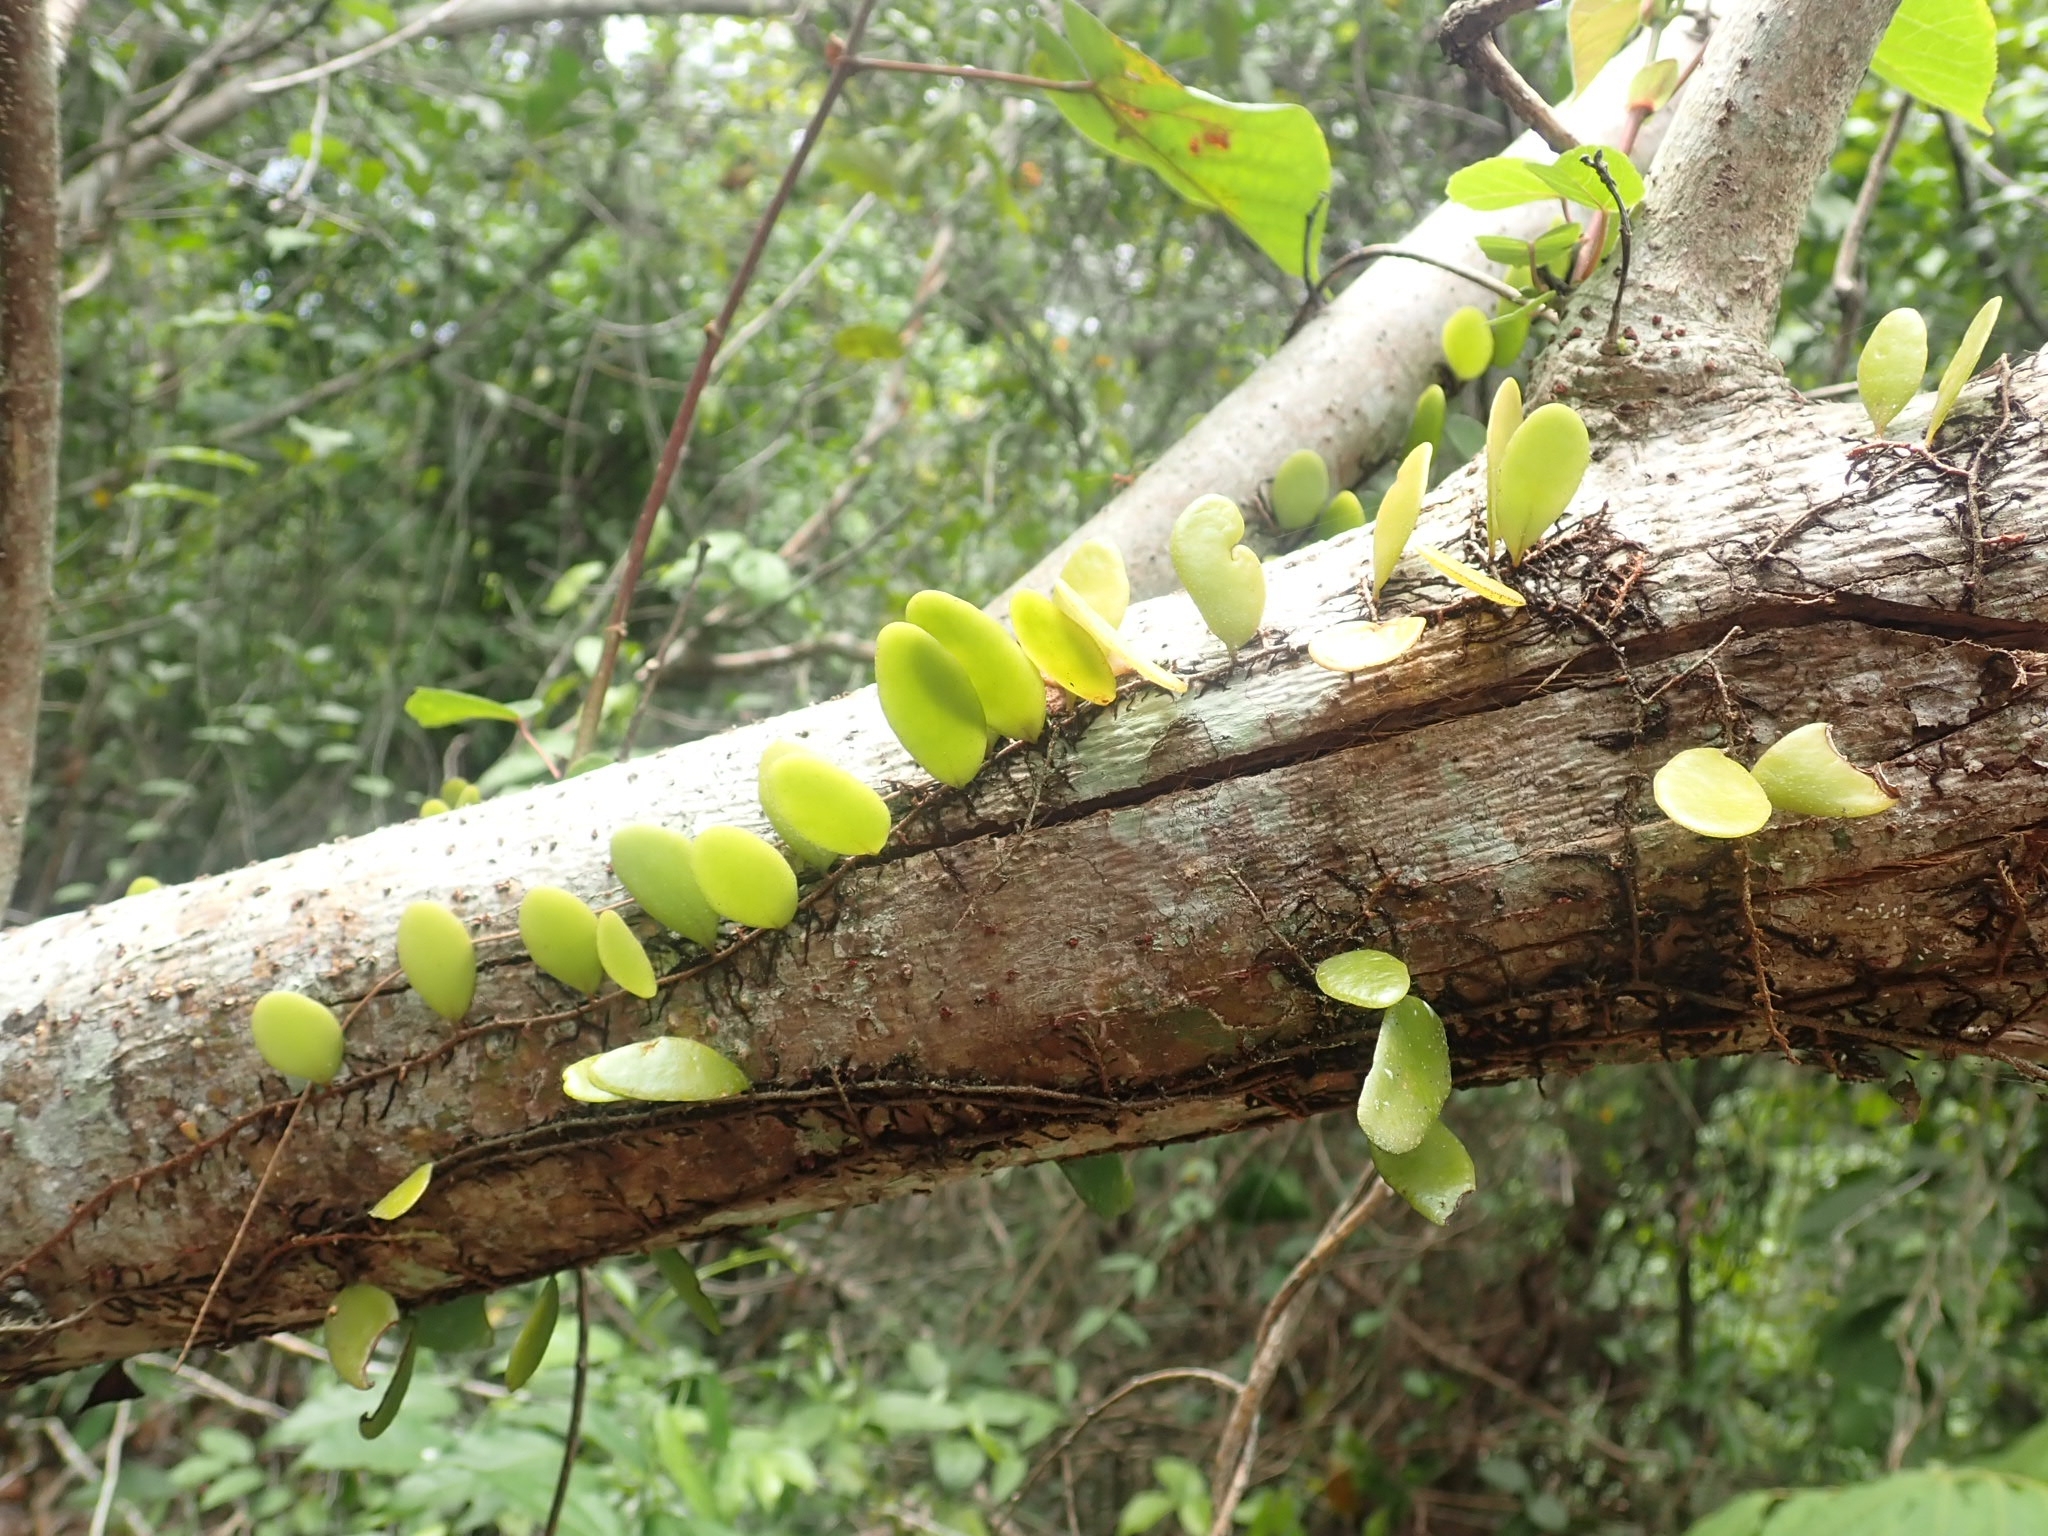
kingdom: Plantae
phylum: Tracheophyta
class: Polypodiopsida
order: Polypodiales
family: Polypodiaceae
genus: Pyrrosia
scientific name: Pyrrosia piloselloides
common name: Epiphytic creeping fern
